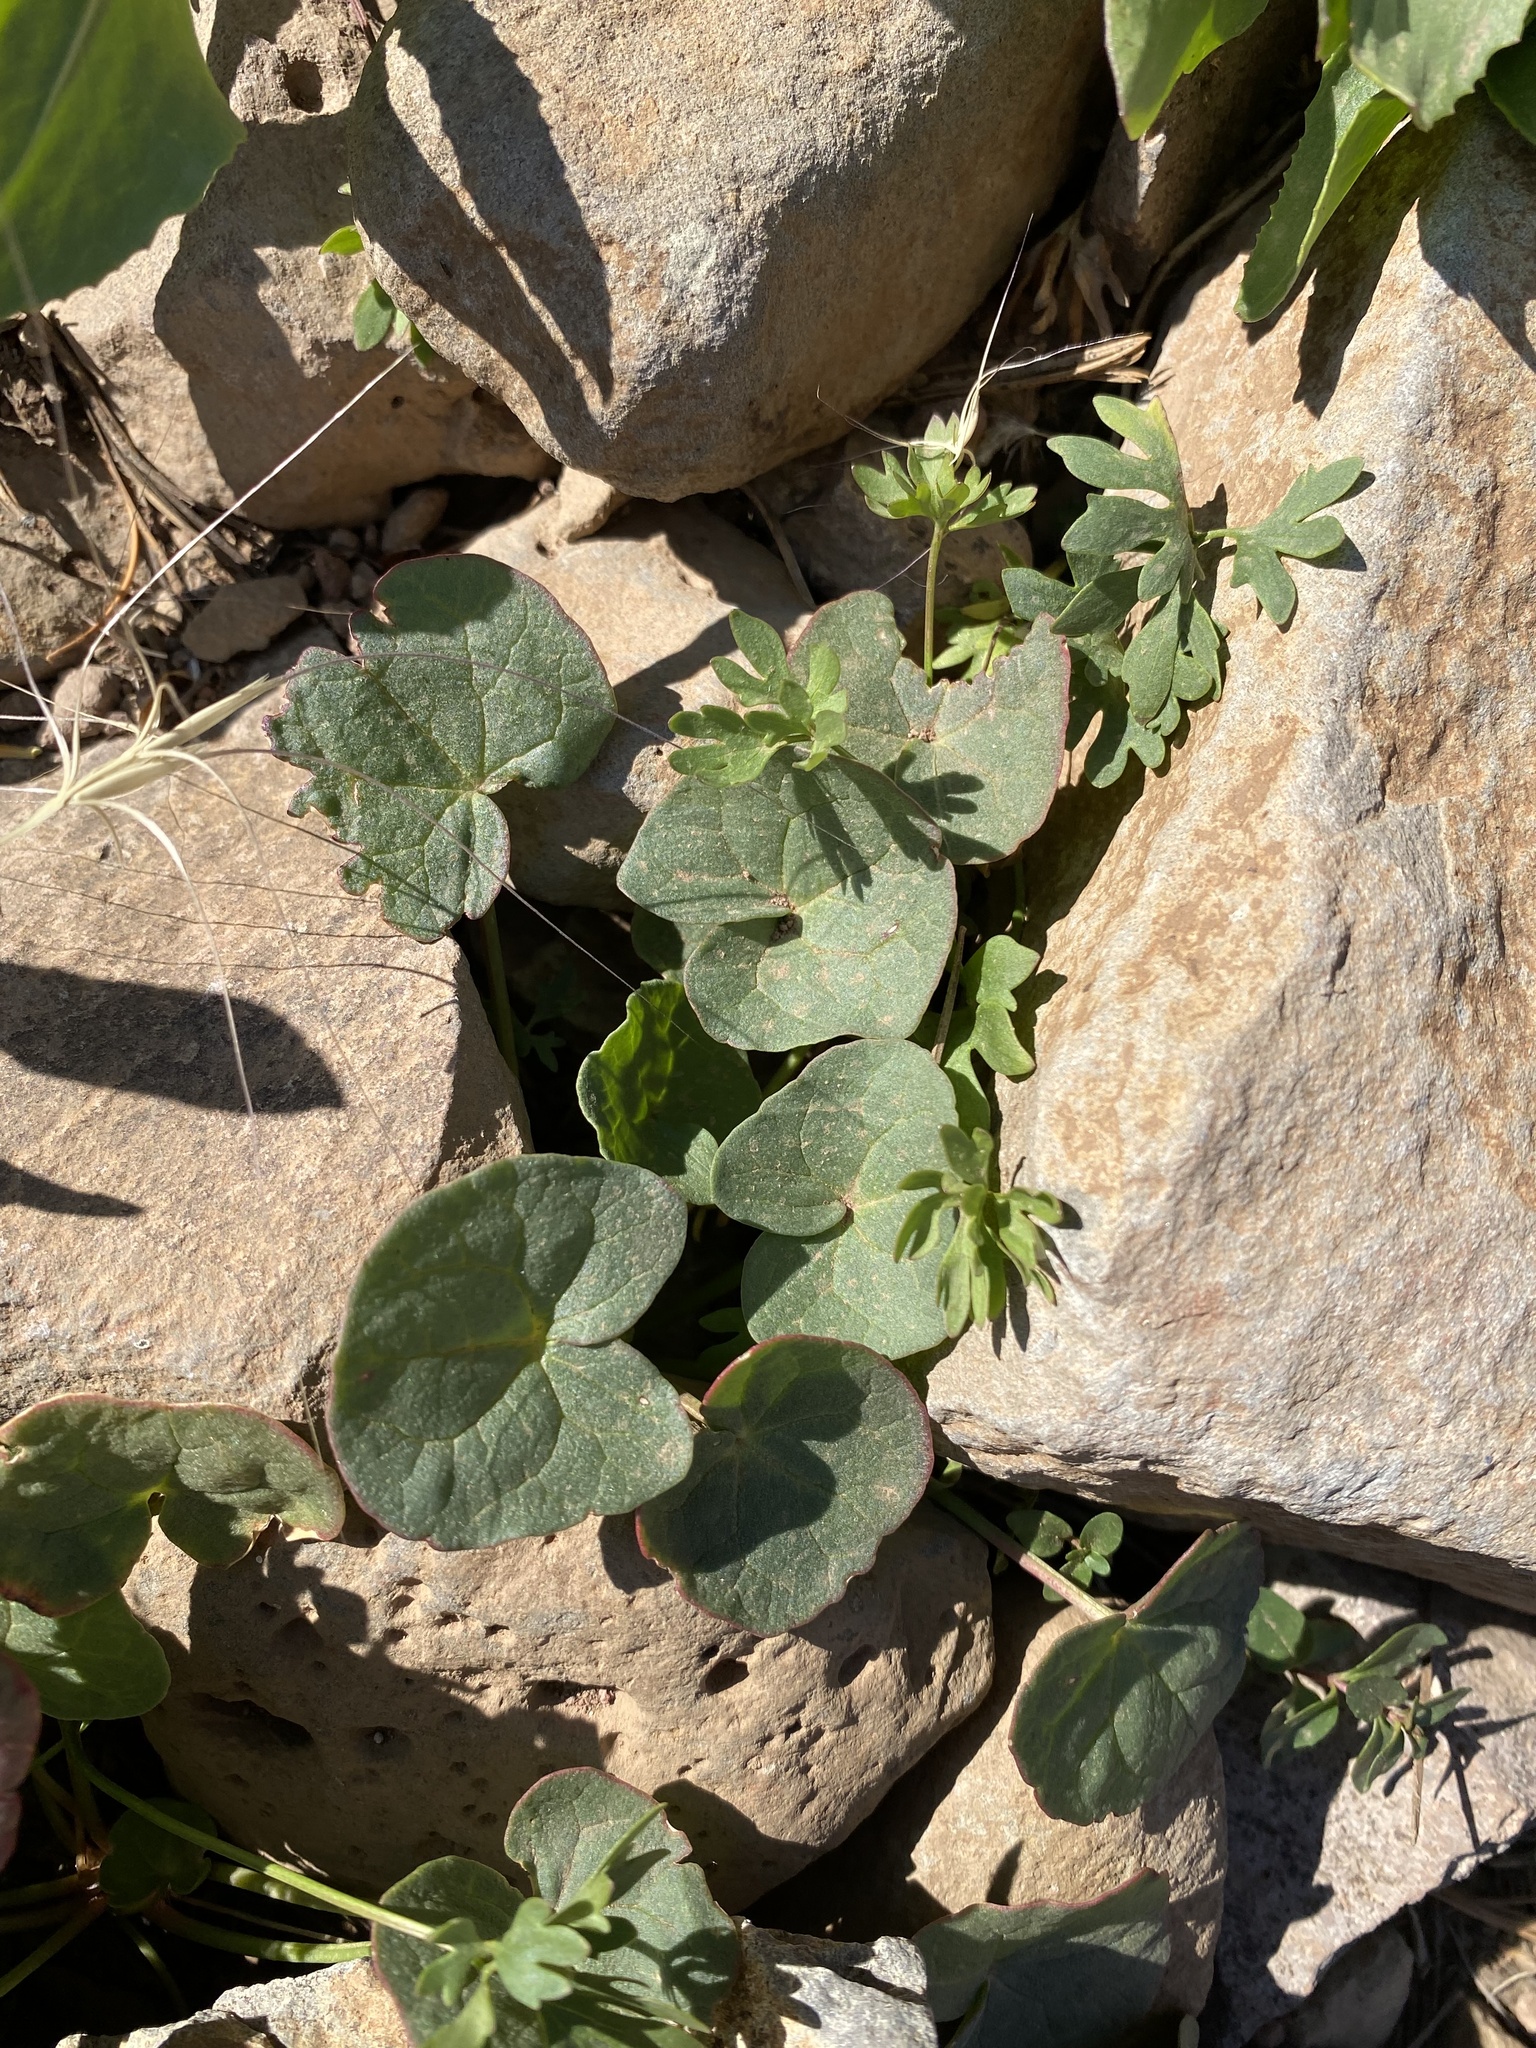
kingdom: Plantae
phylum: Tracheophyta
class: Magnoliopsida
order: Caryophyllales
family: Polygonaceae
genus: Oxyria
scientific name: Oxyria digyna
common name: Alpine mountain-sorrel
